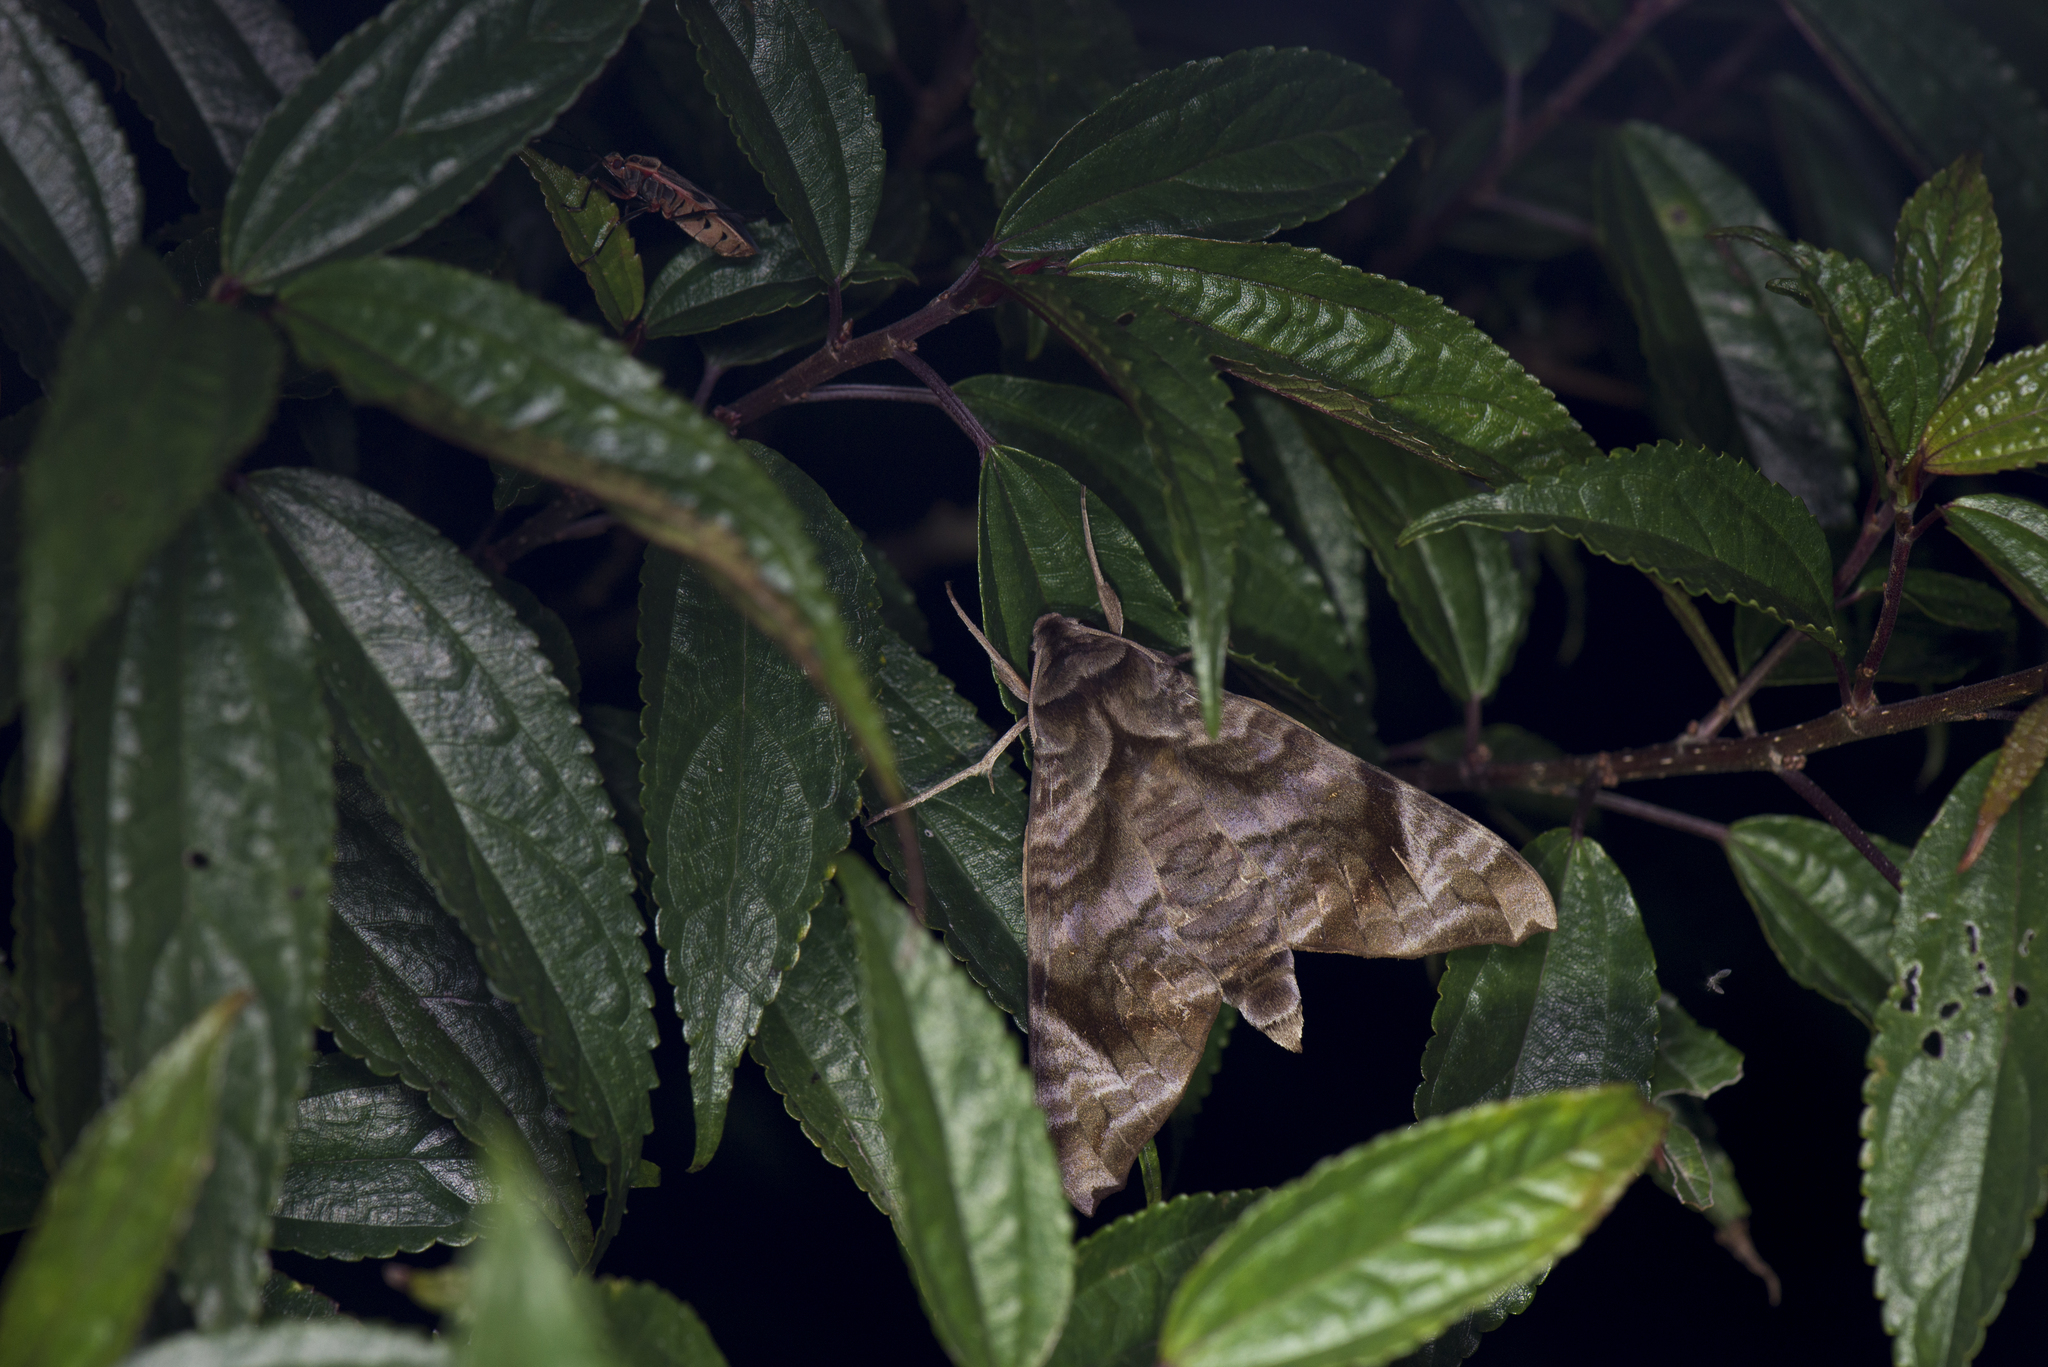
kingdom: Animalia
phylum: Arthropoda
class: Insecta
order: Lepidoptera
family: Sphingidae
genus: Acosmeryx
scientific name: Acosmeryx castanea
